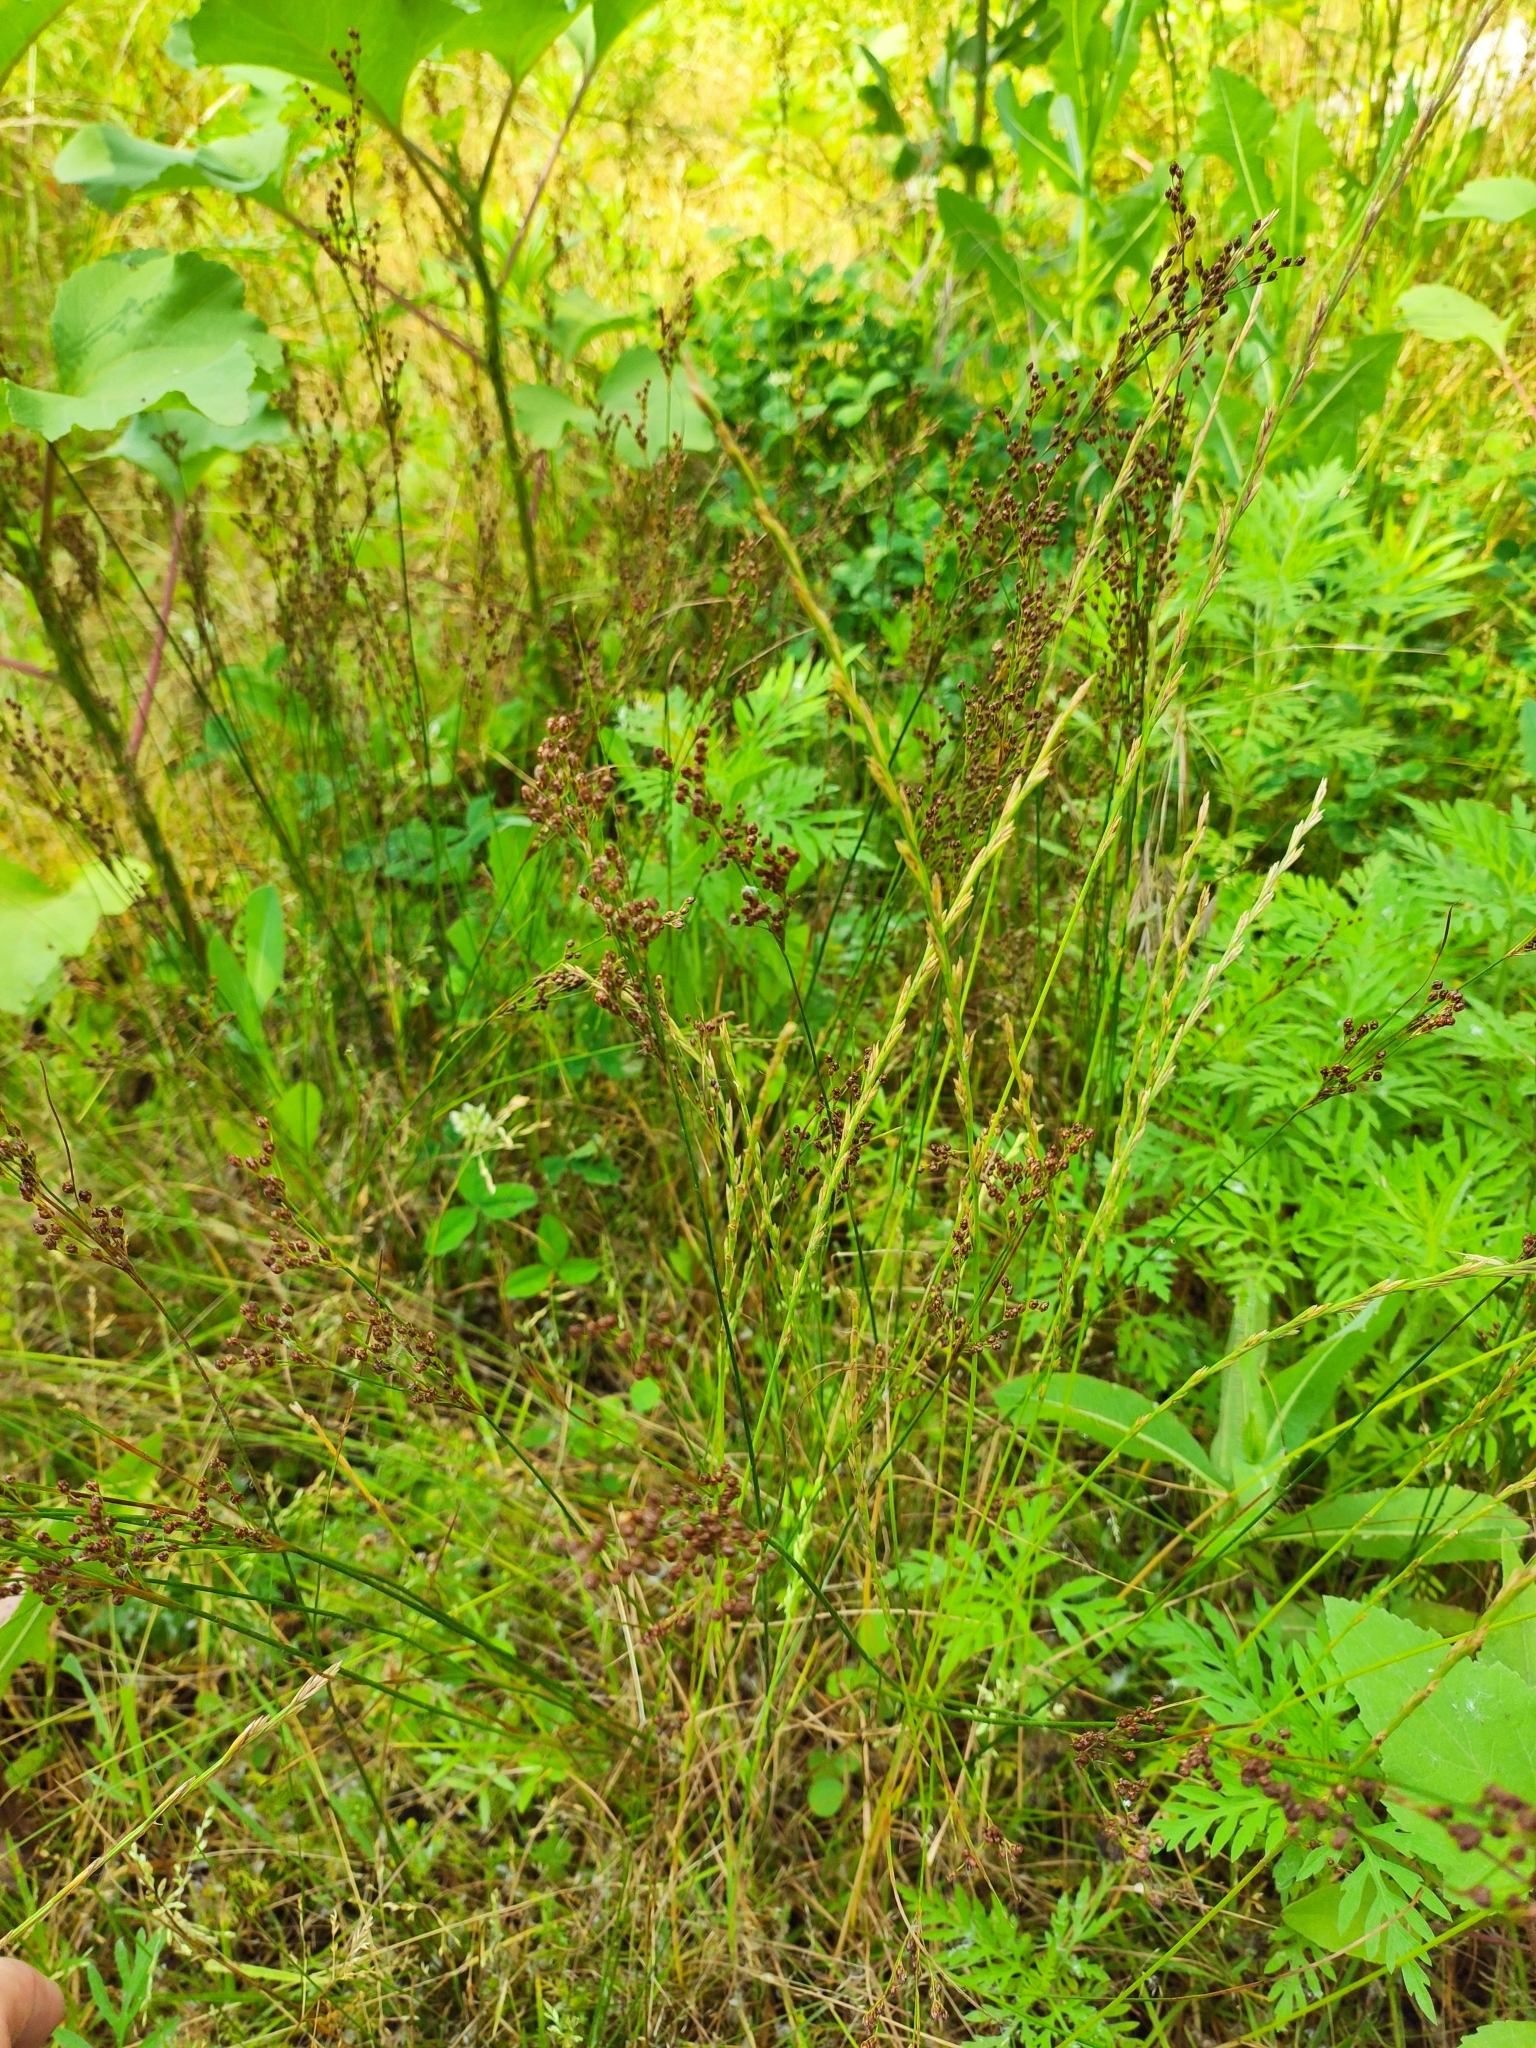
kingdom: Plantae
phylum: Tracheophyta
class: Liliopsida
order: Poales
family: Juncaceae
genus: Juncus
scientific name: Juncus compressus
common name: Round-fruited rush
